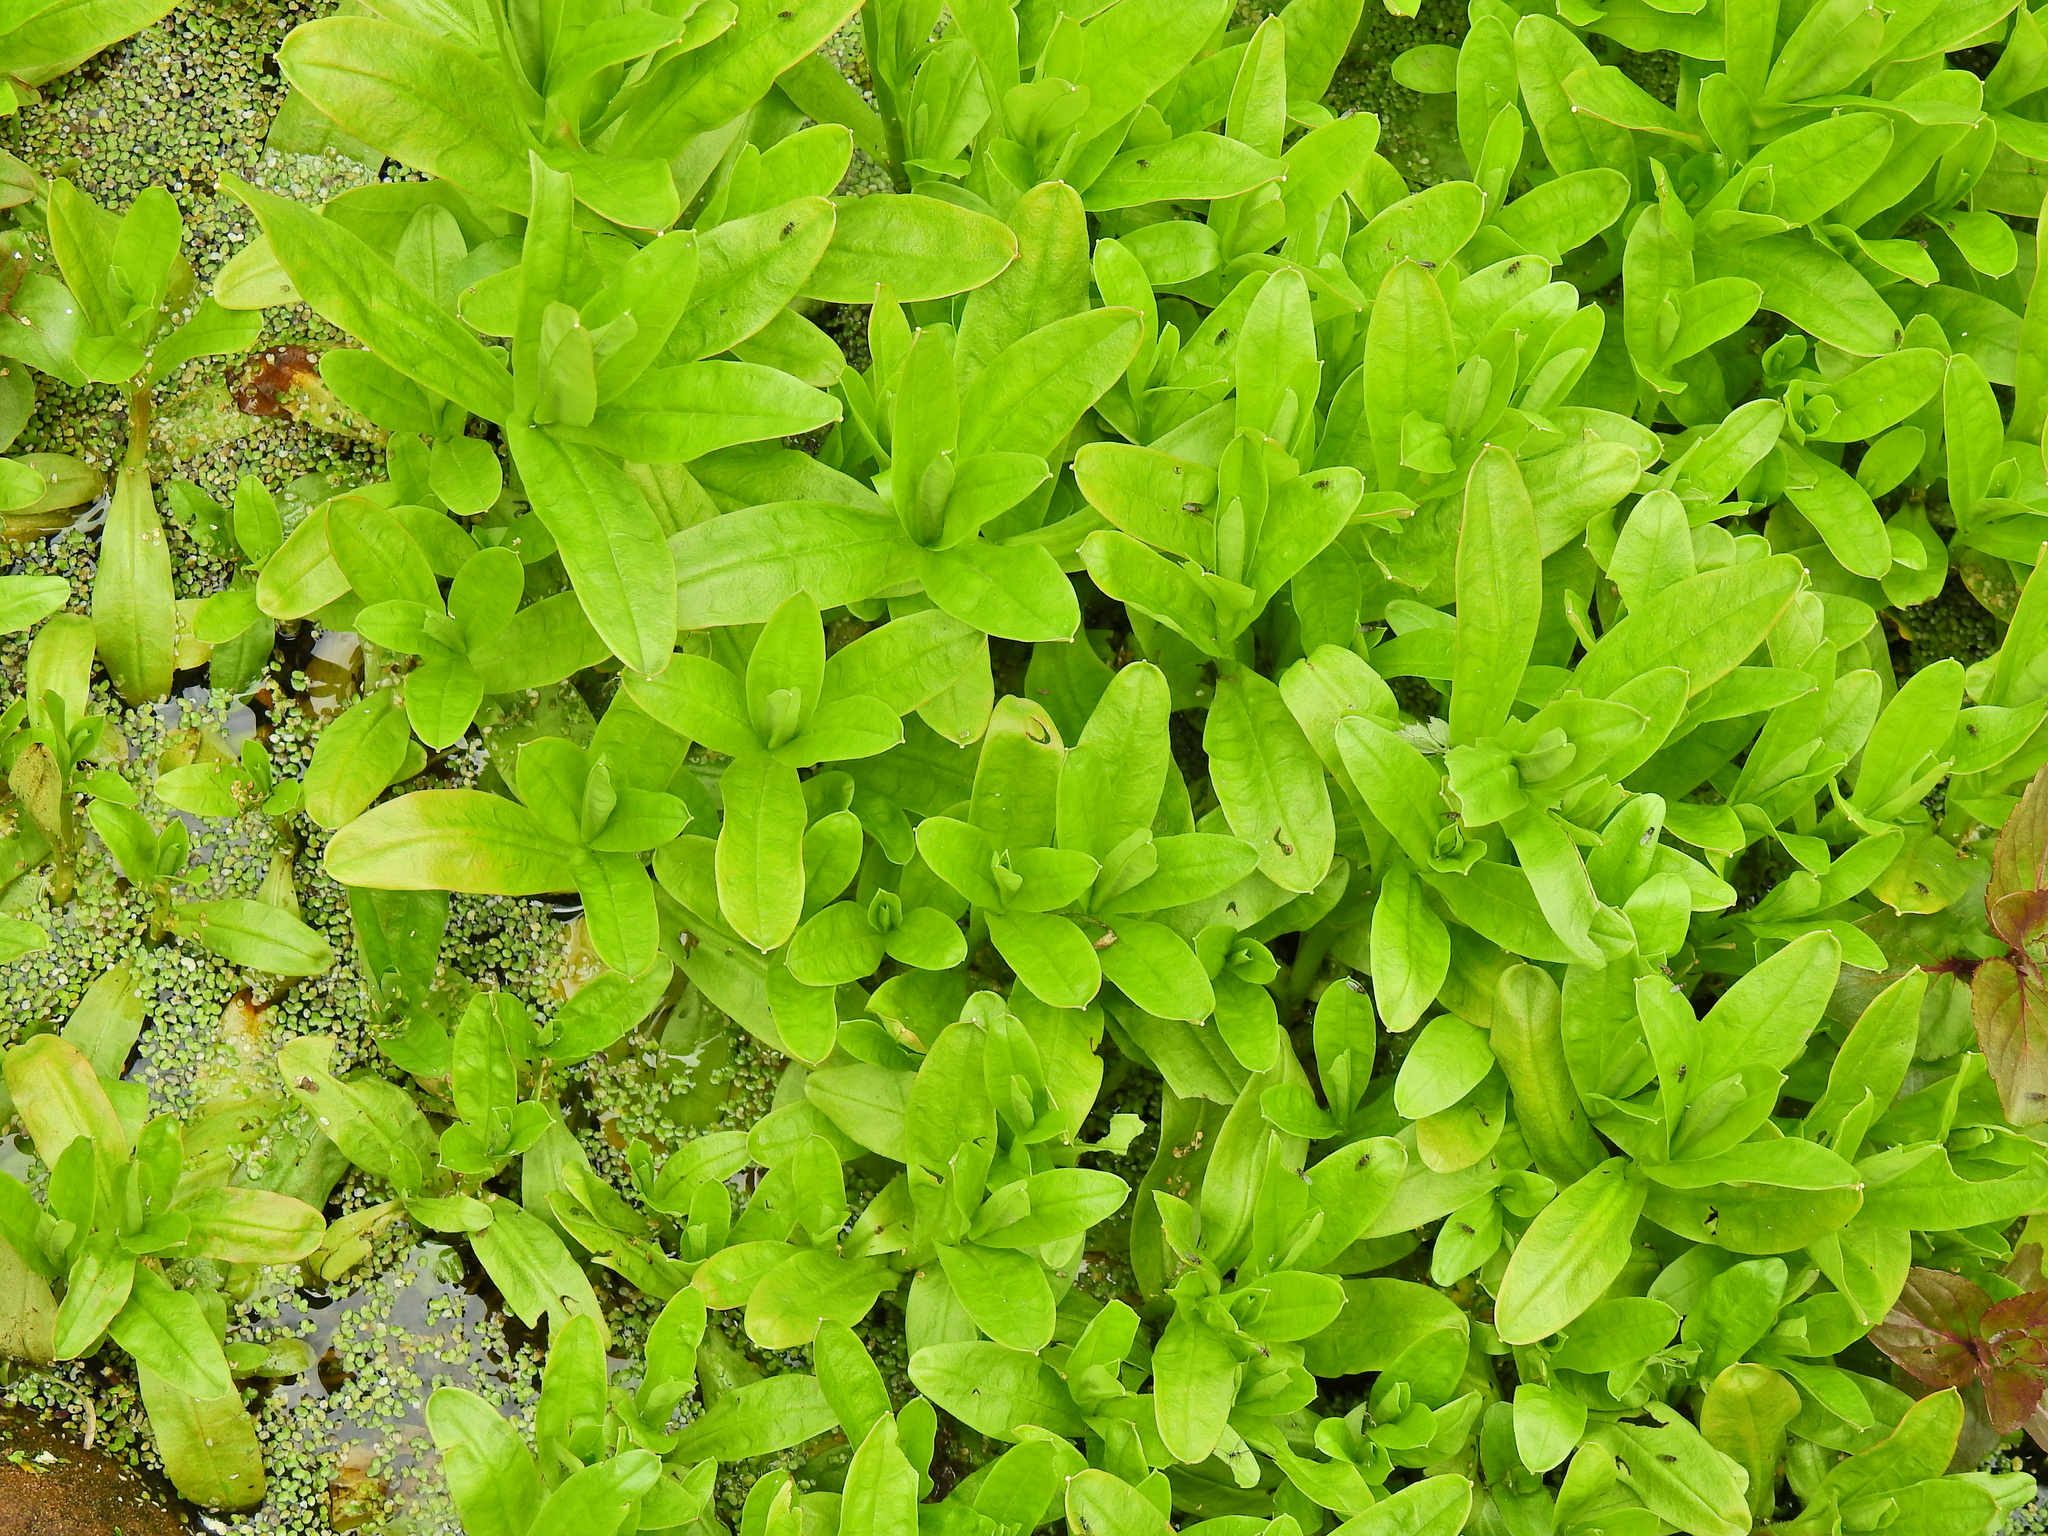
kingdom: Plantae
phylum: Tracheophyta
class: Magnoliopsida
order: Boraginales
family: Boraginaceae
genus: Myosotis
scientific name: Myosotis scorpioides
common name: Water forget-me-not
